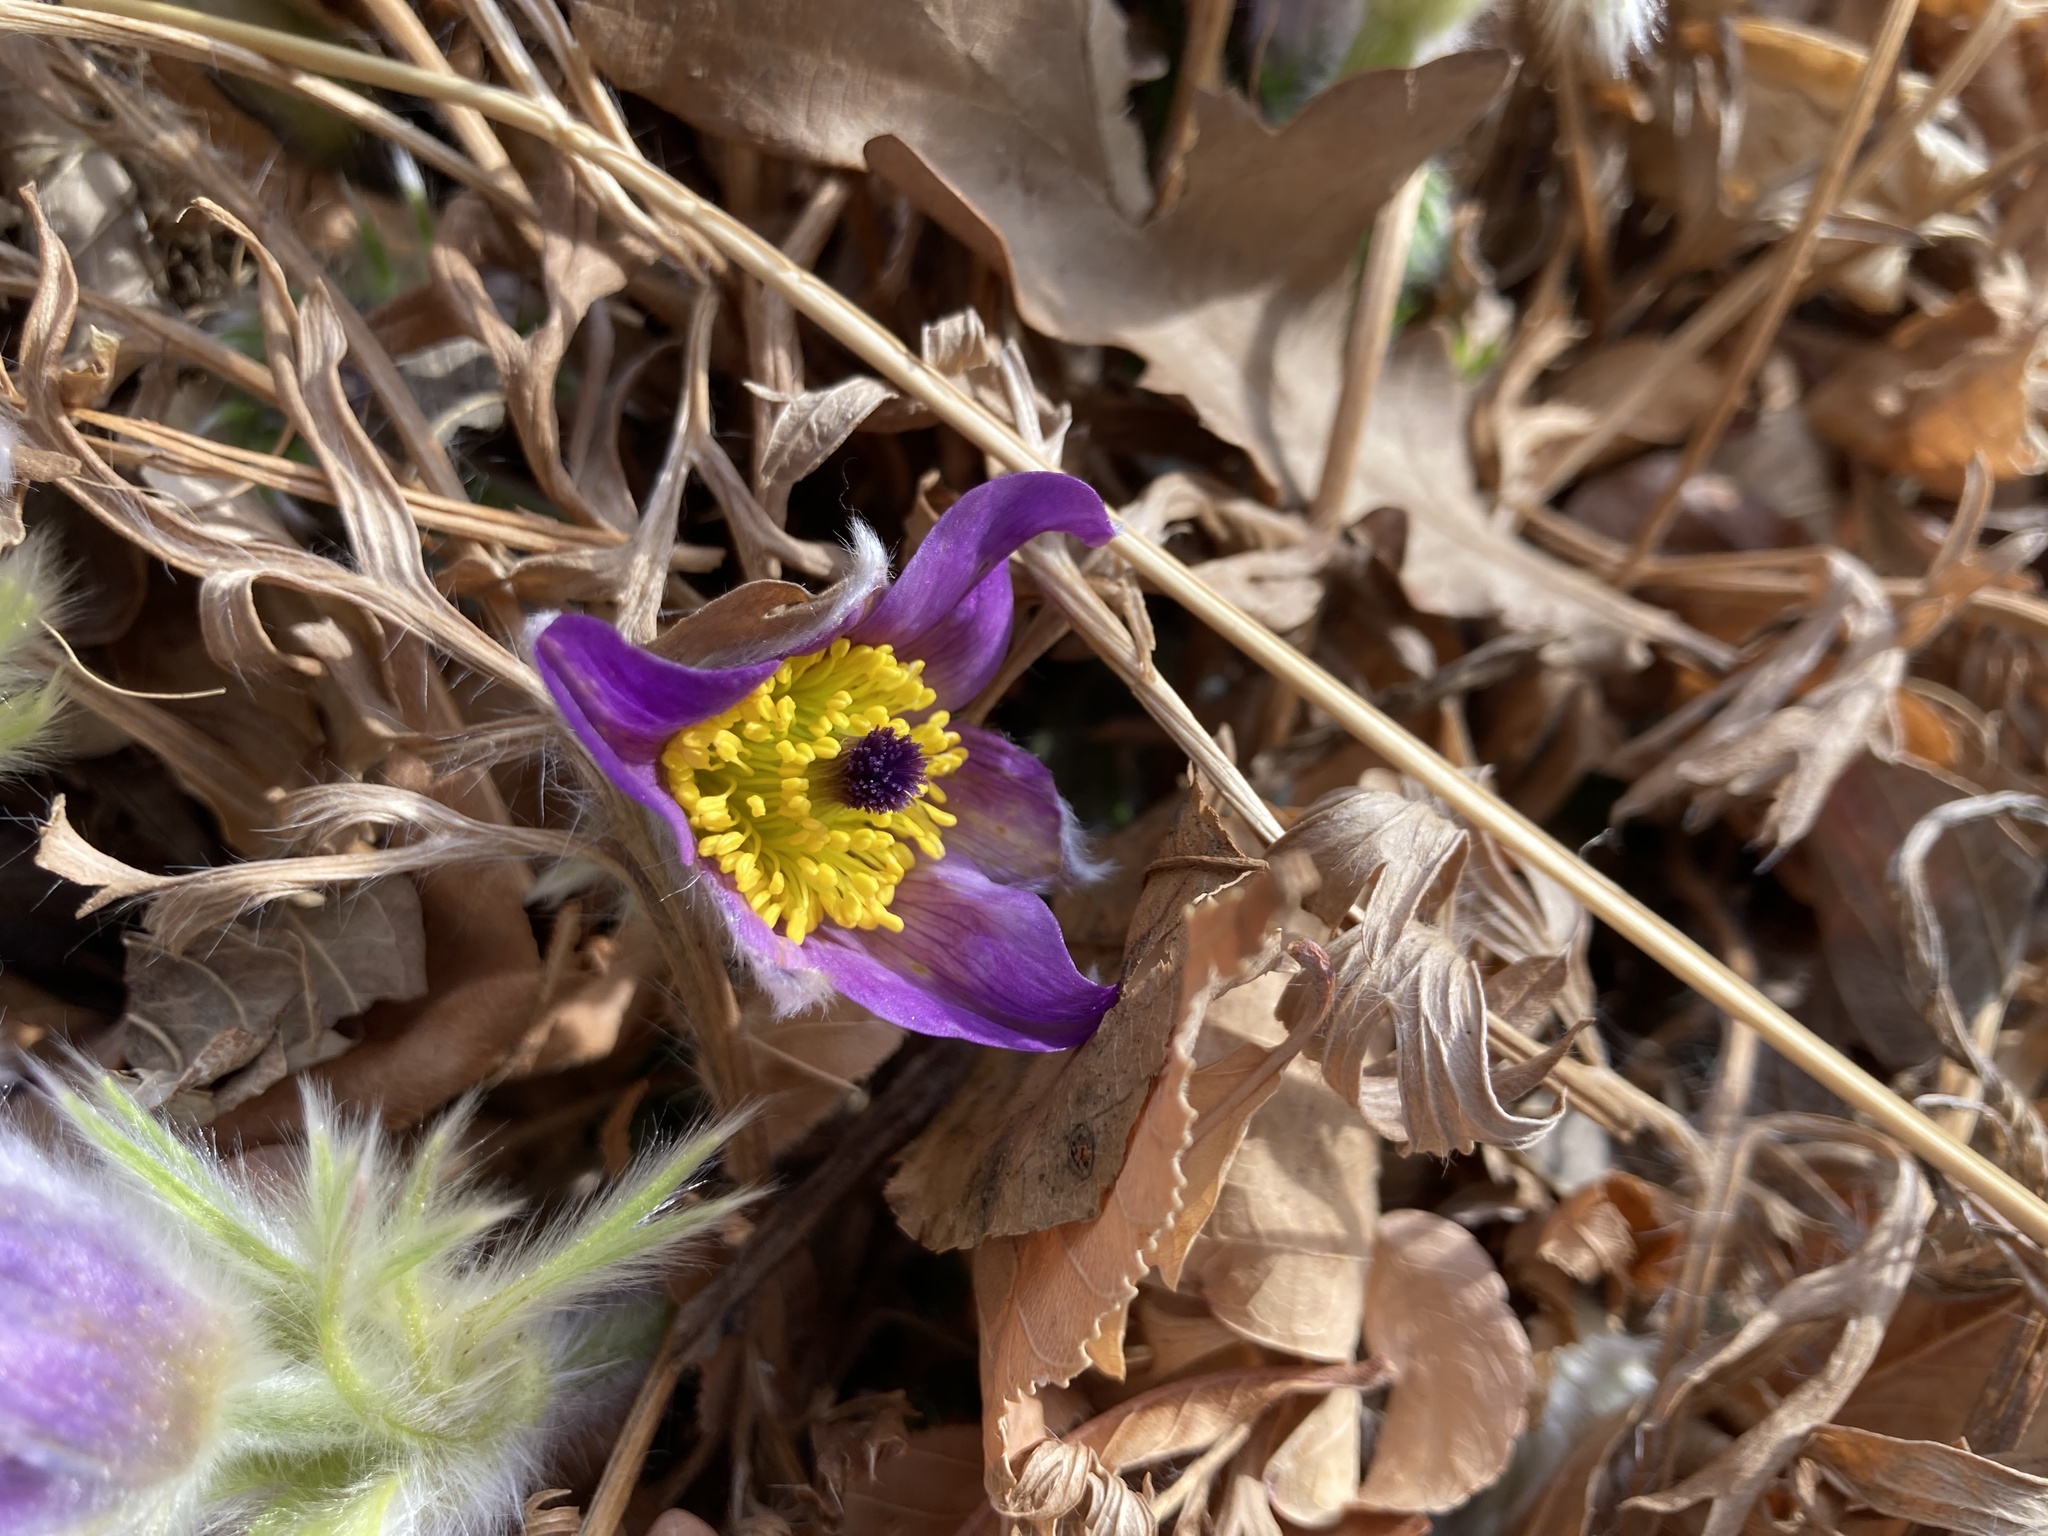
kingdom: Plantae
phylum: Tracheophyta
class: Magnoliopsida
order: Ranunculales
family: Ranunculaceae
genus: Pulsatilla
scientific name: Pulsatilla nuttalliana
